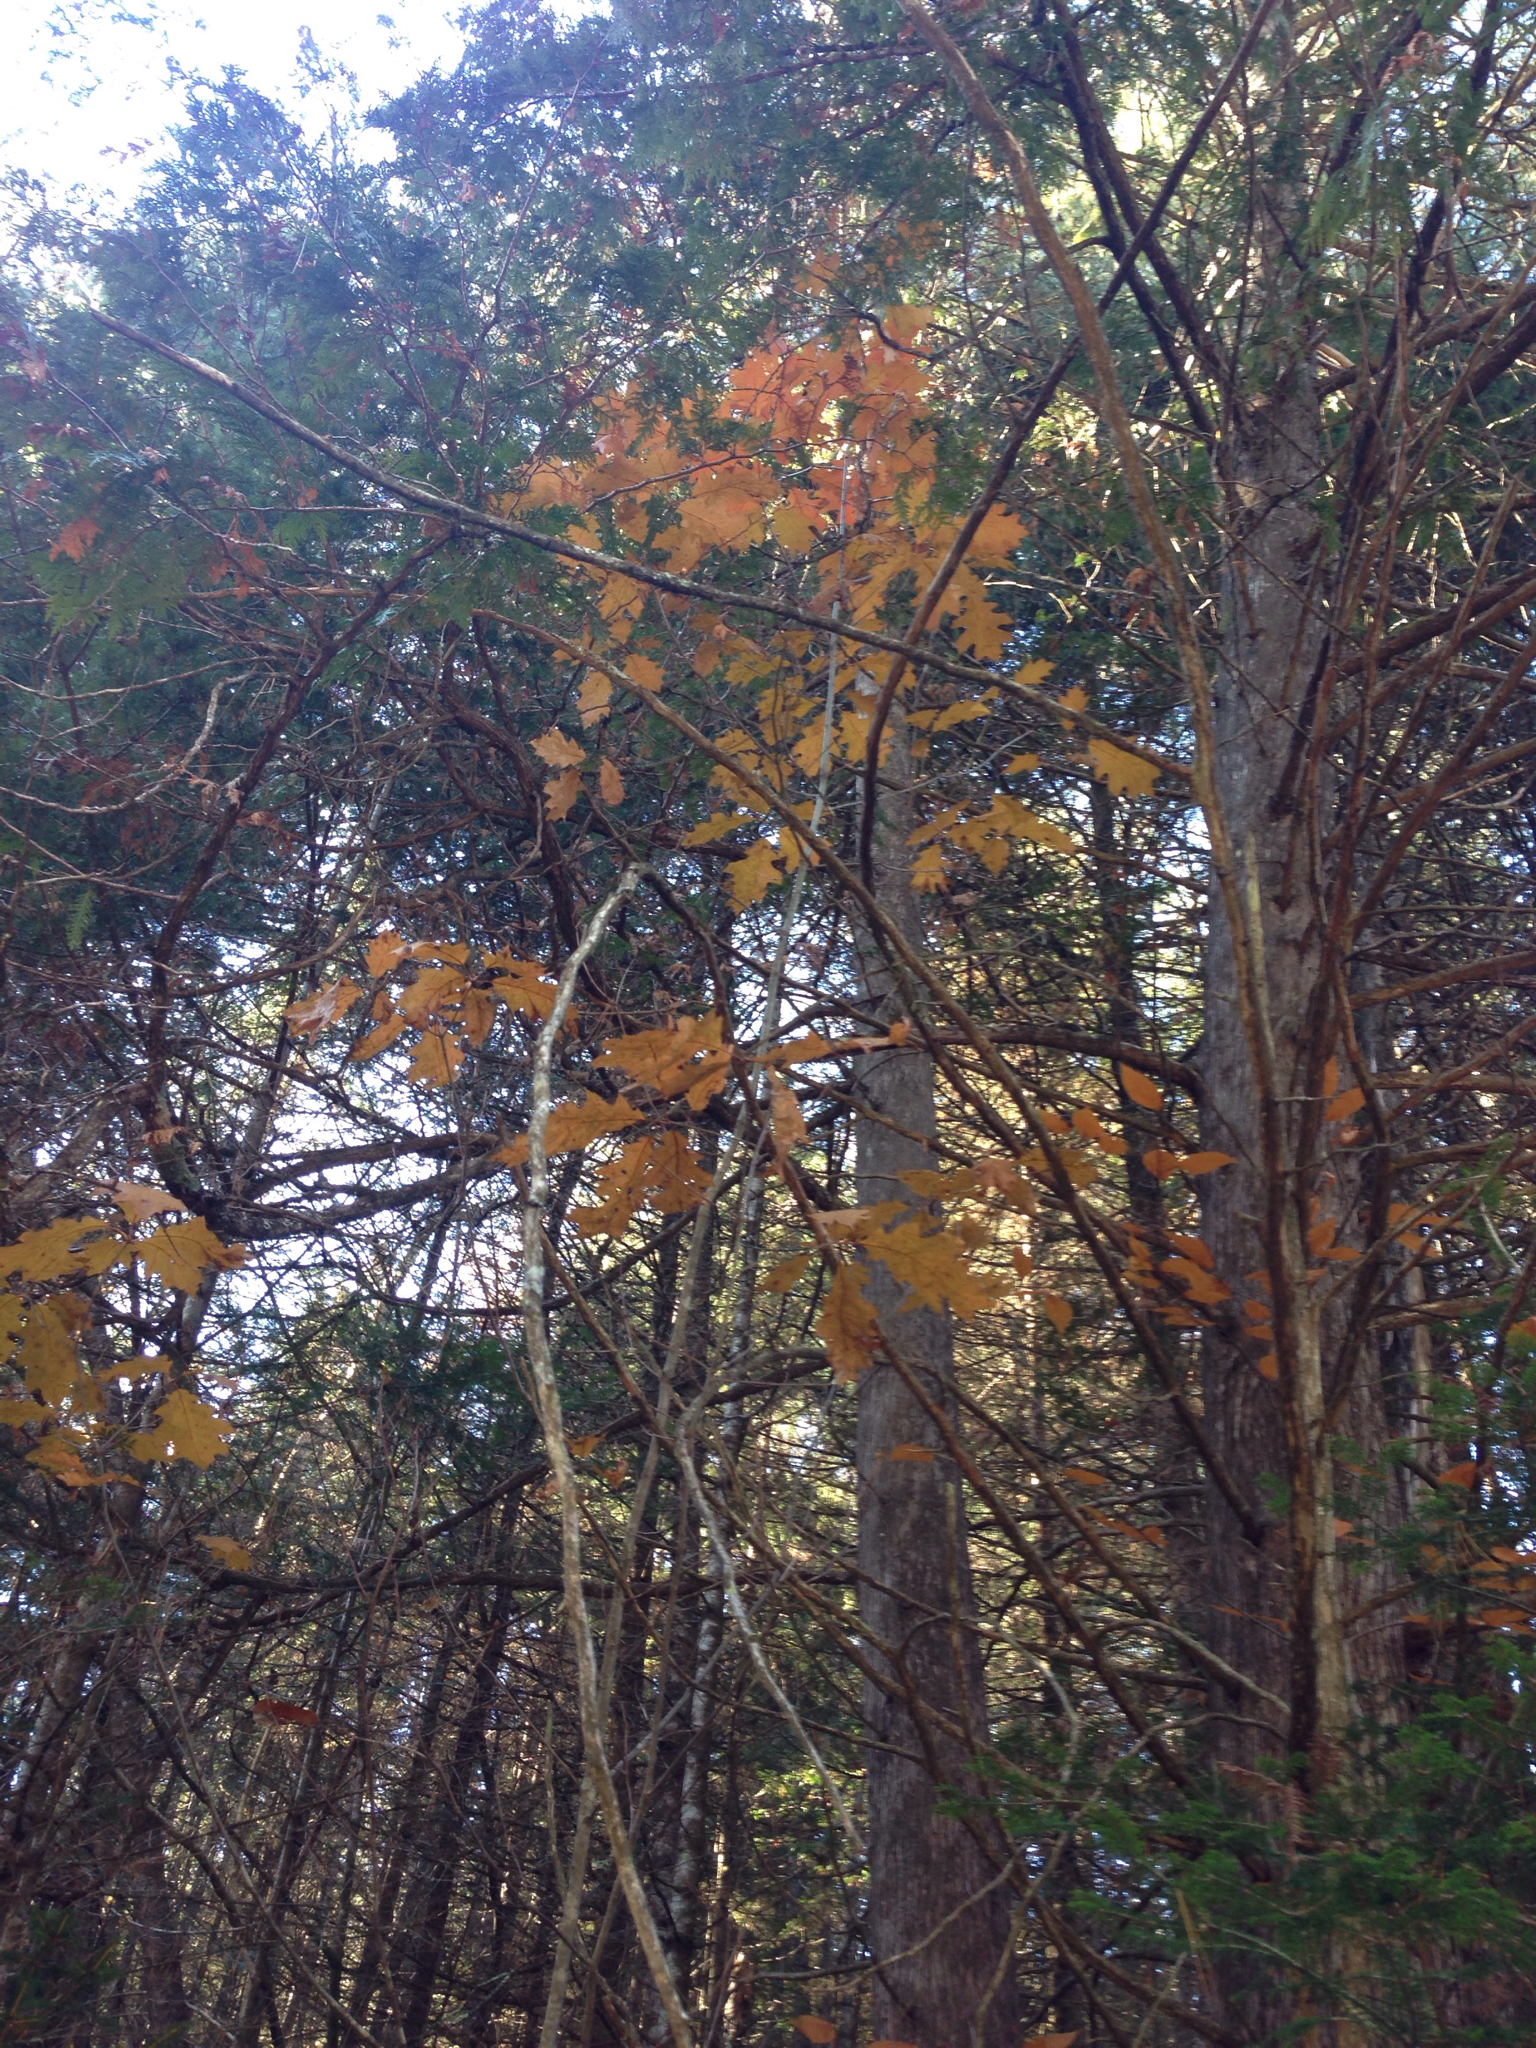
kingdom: Plantae
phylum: Tracheophyta
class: Magnoliopsida
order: Fagales
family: Fagaceae
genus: Quercus
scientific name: Quercus rubra
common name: Red oak
